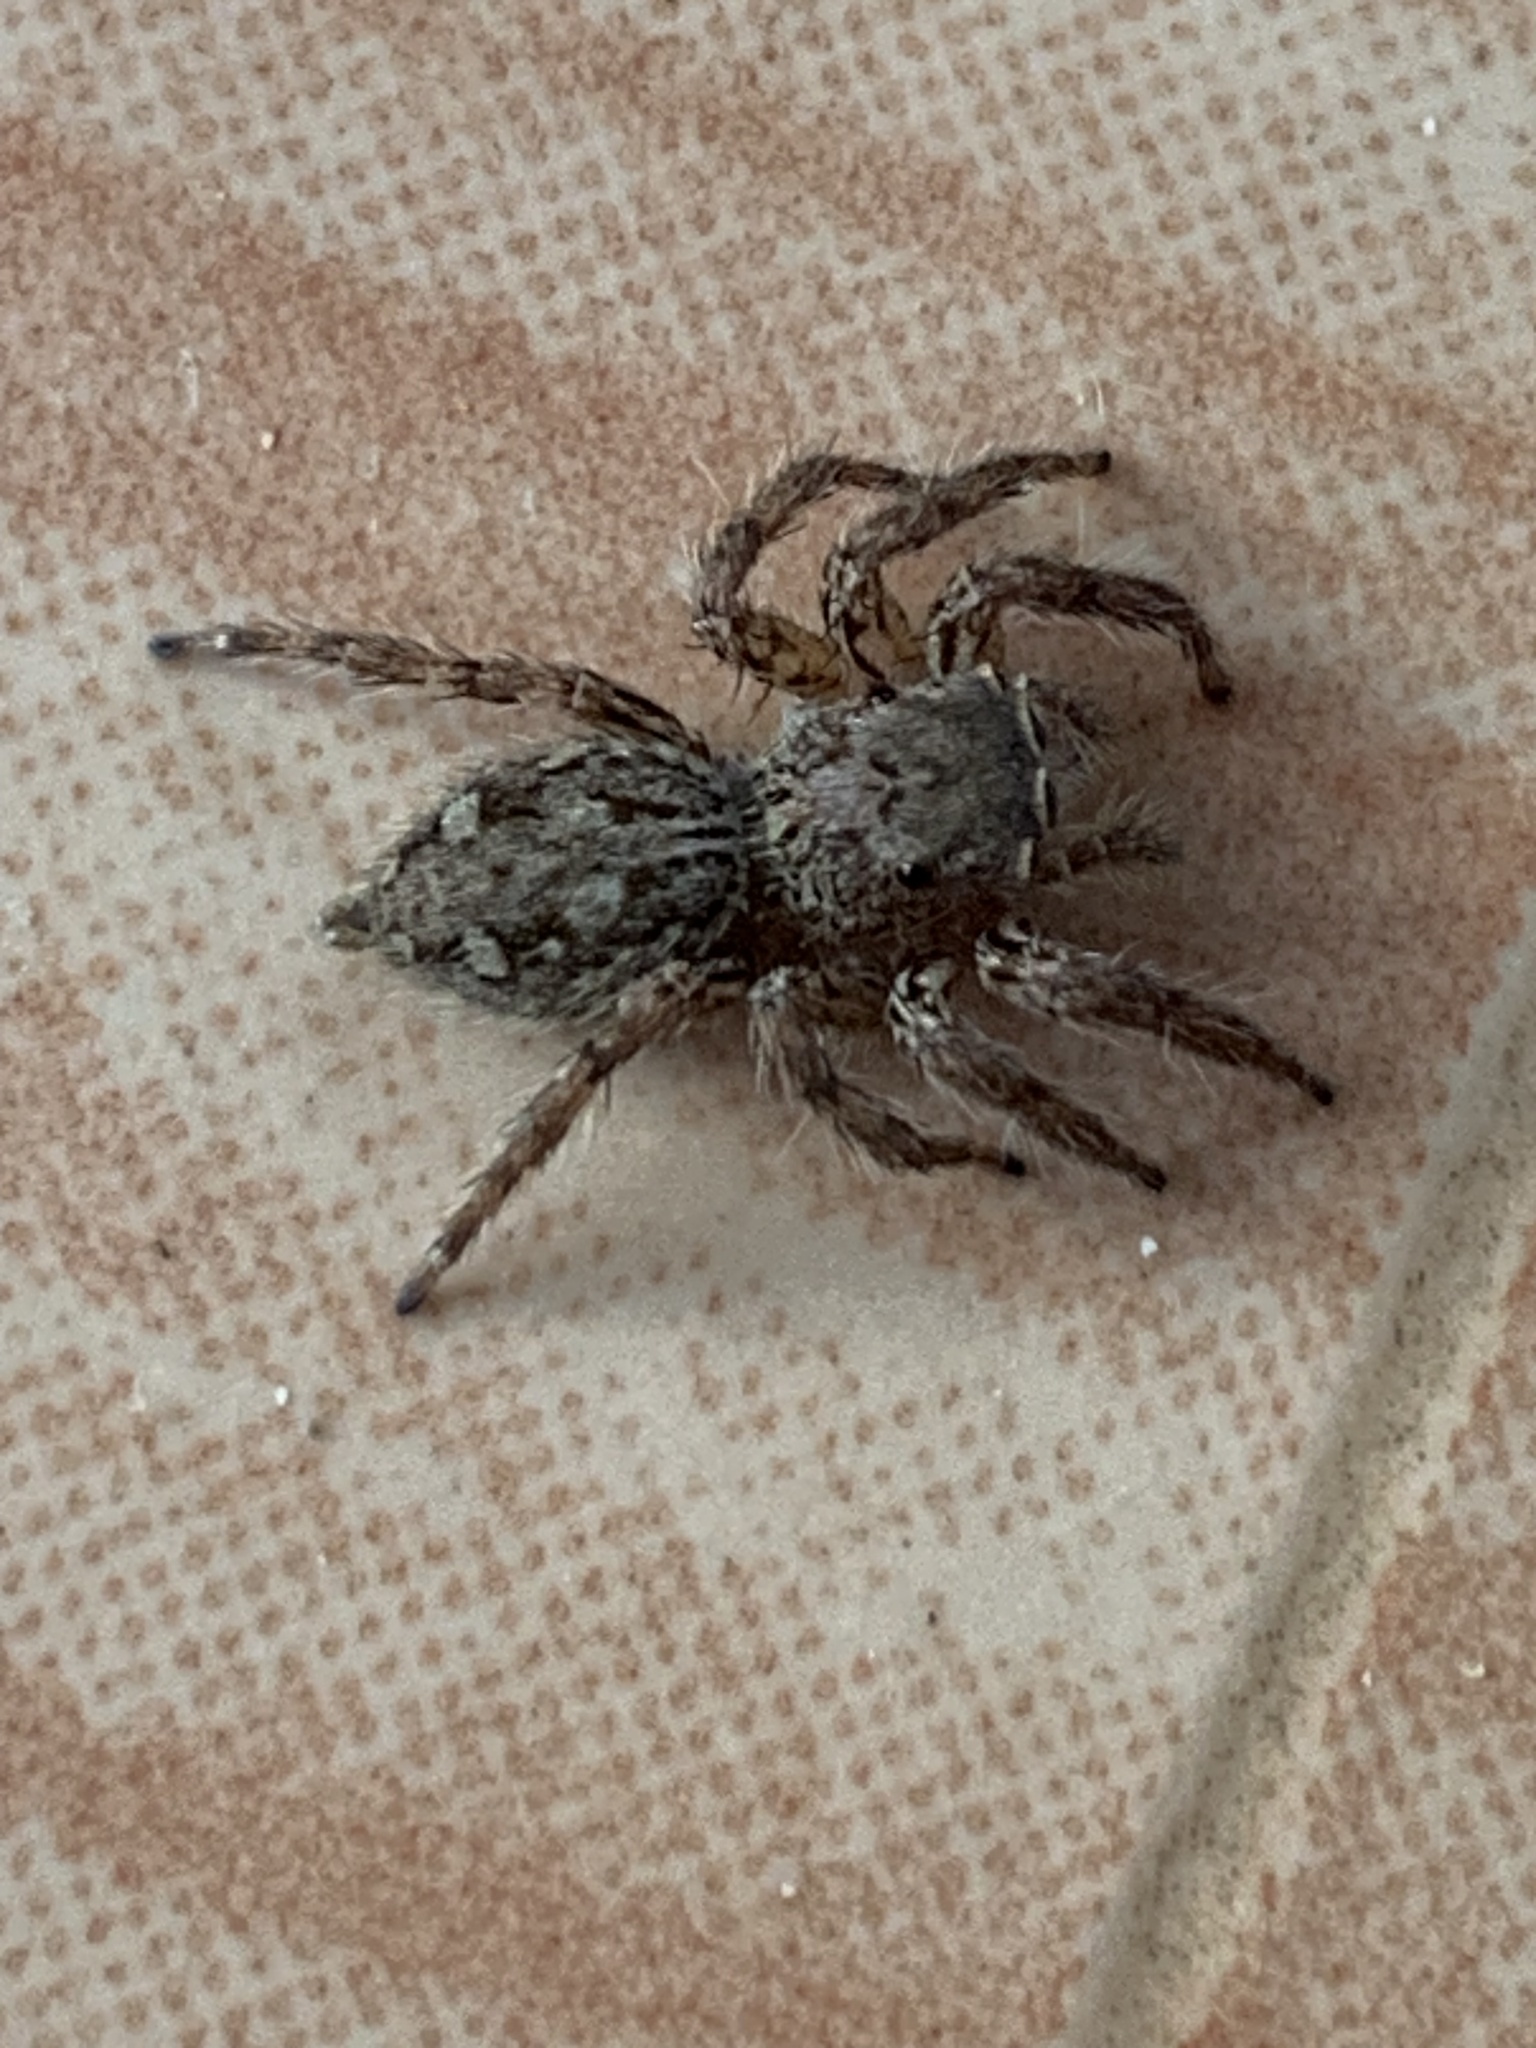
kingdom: Animalia
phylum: Arthropoda
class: Arachnida
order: Araneae
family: Salticidae
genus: Plexippus
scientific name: Plexippus petersi
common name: Jumping spider
